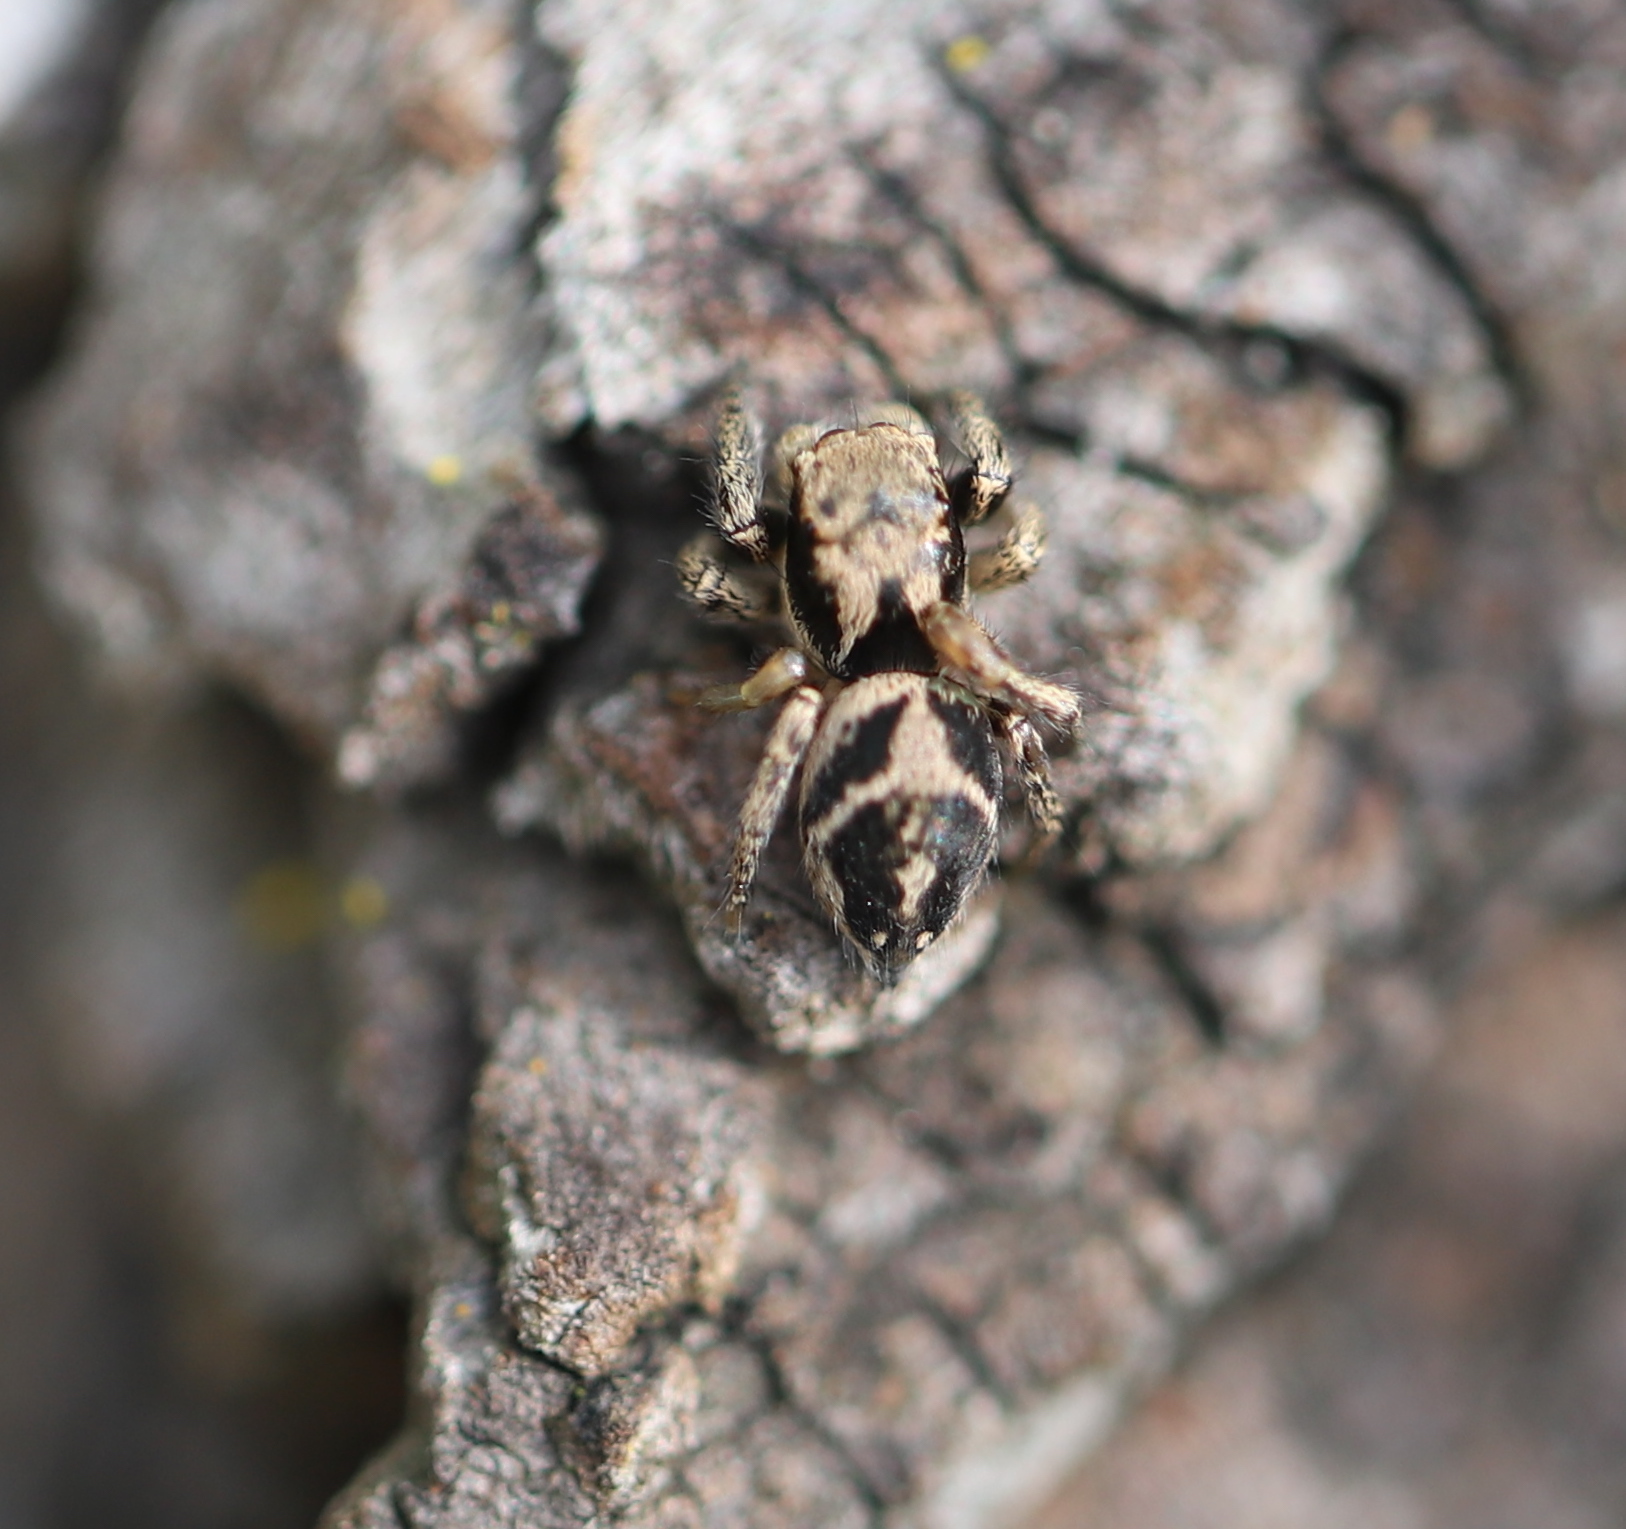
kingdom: Animalia
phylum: Arthropoda
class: Arachnida
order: Araneae
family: Salticidae
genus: Habronattus
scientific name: Habronattus coecatus
